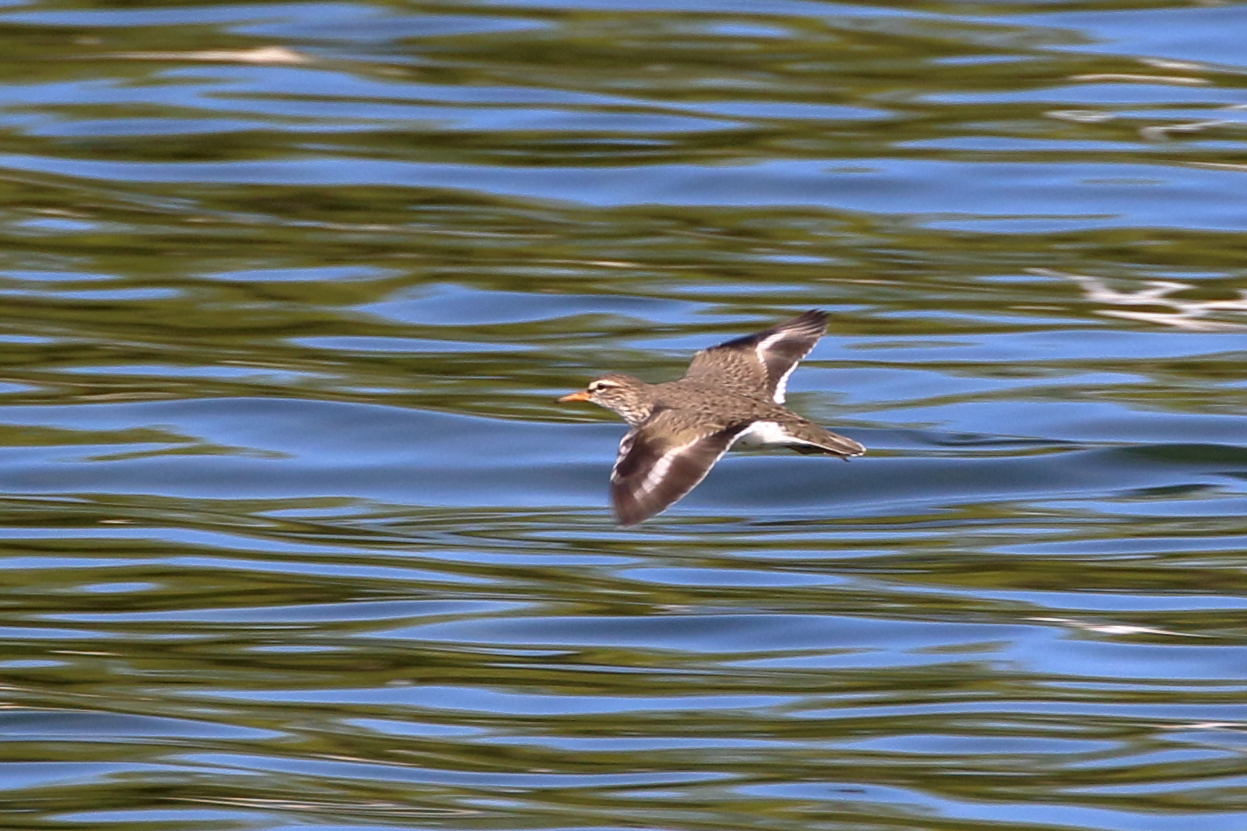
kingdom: Animalia
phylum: Chordata
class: Aves
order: Charadriiformes
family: Scolopacidae
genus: Actitis
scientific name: Actitis macularius
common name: Spotted sandpiper
